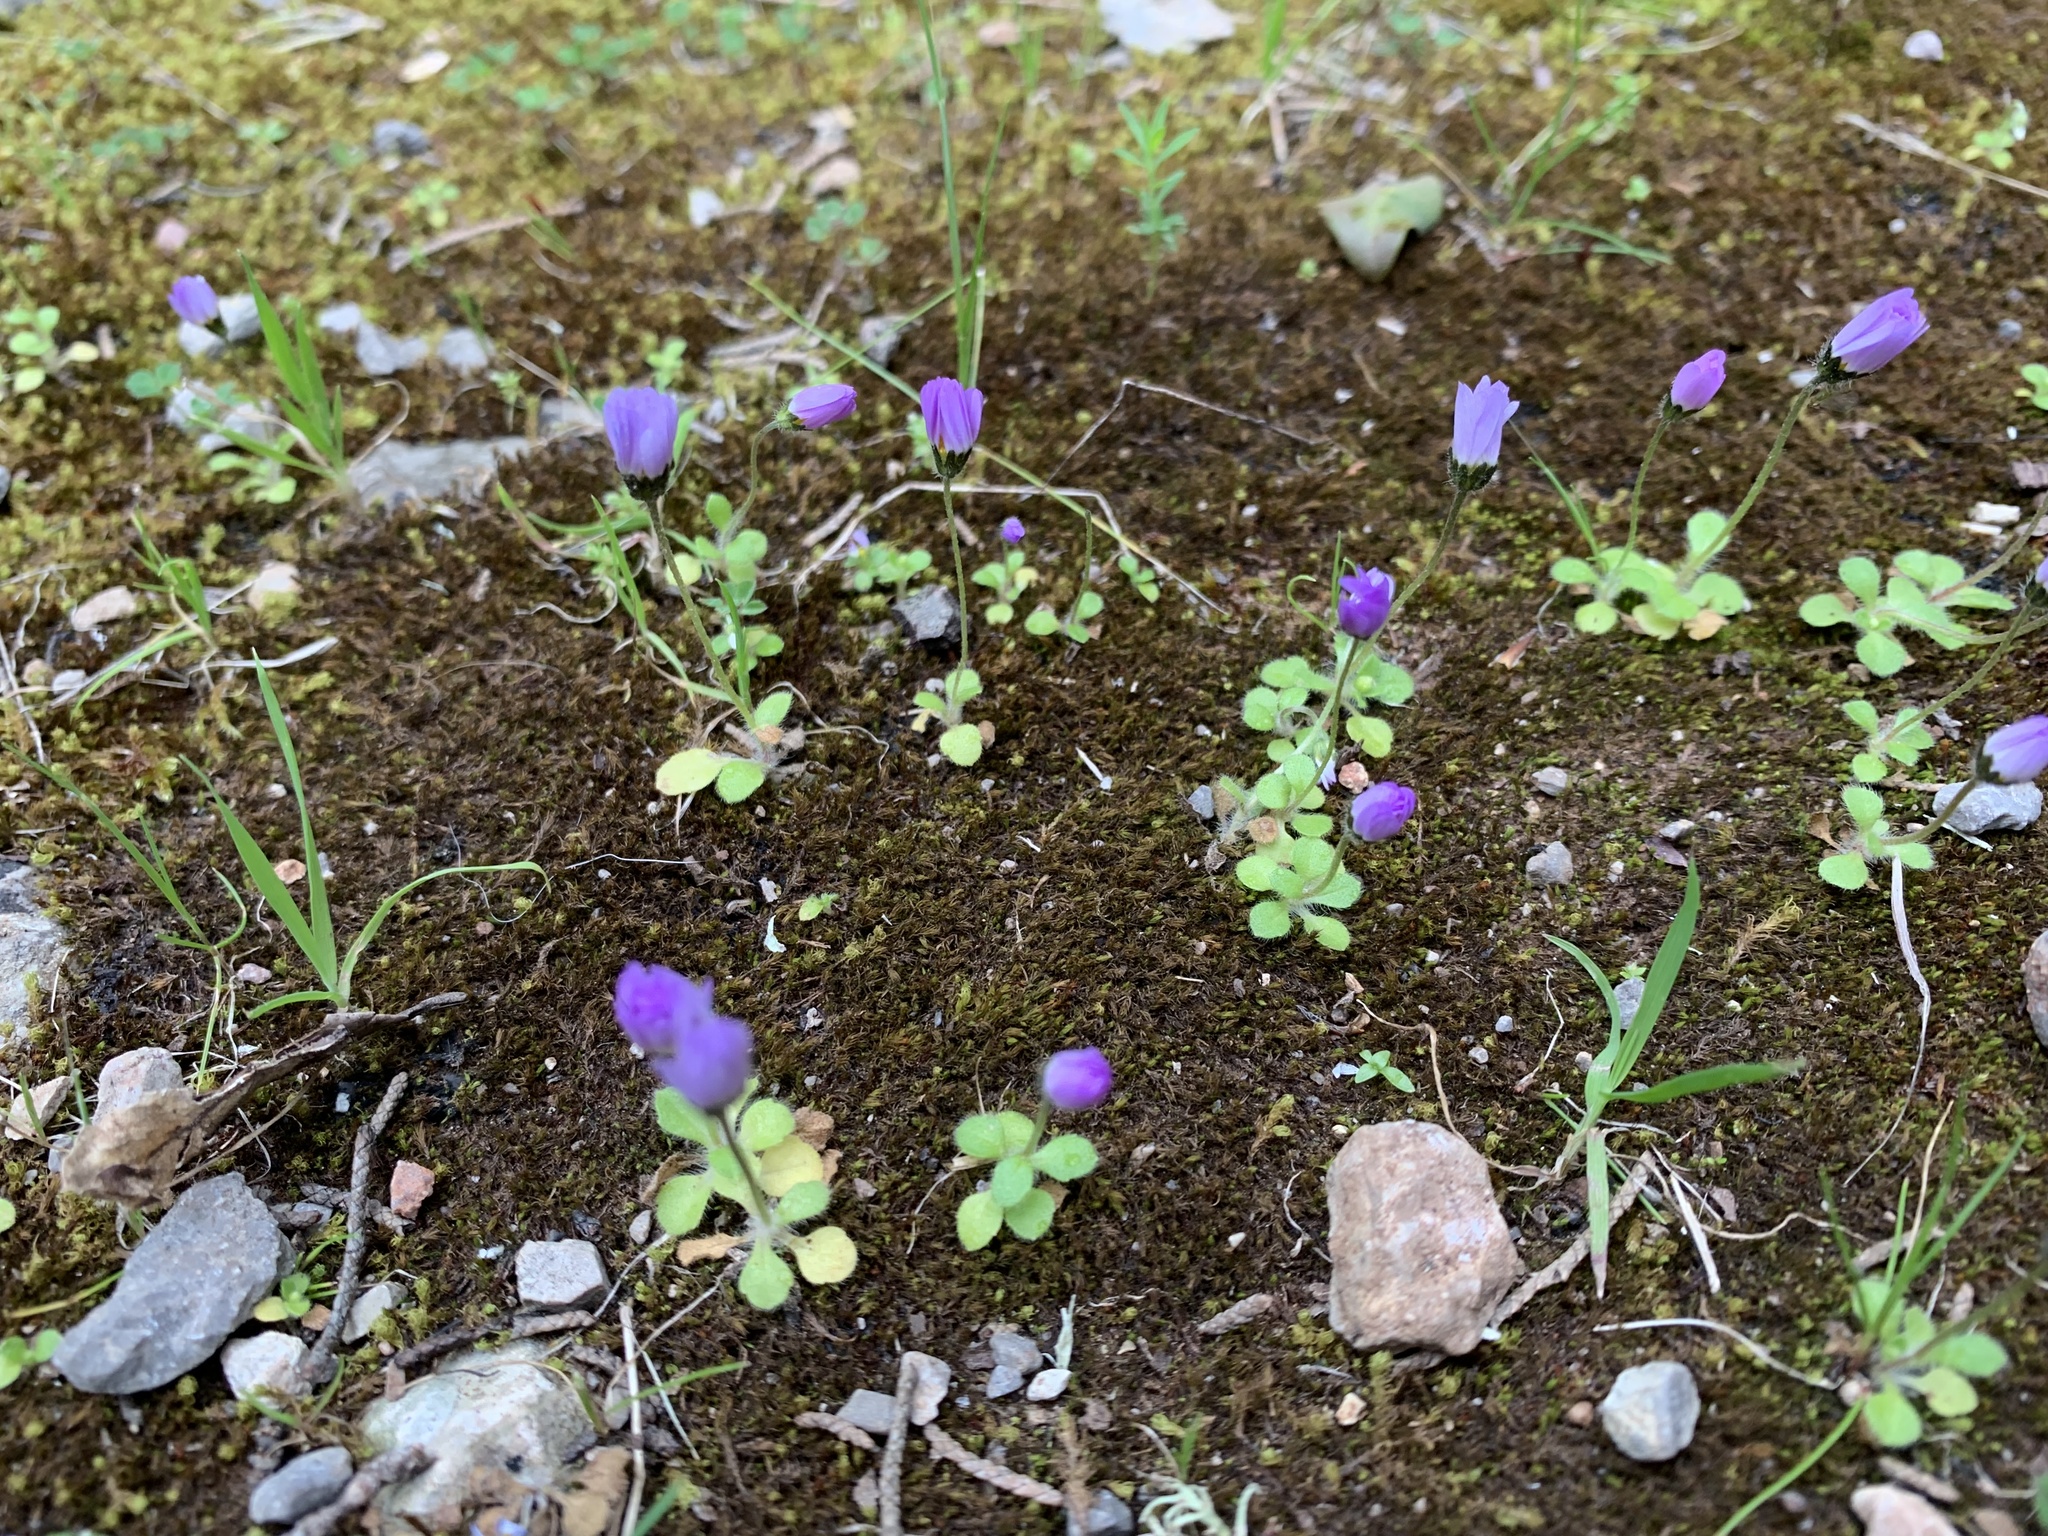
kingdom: Plantae
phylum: Tracheophyta
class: Magnoliopsida
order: Asterales
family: Asteraceae
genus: Bellis
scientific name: Bellis annua
